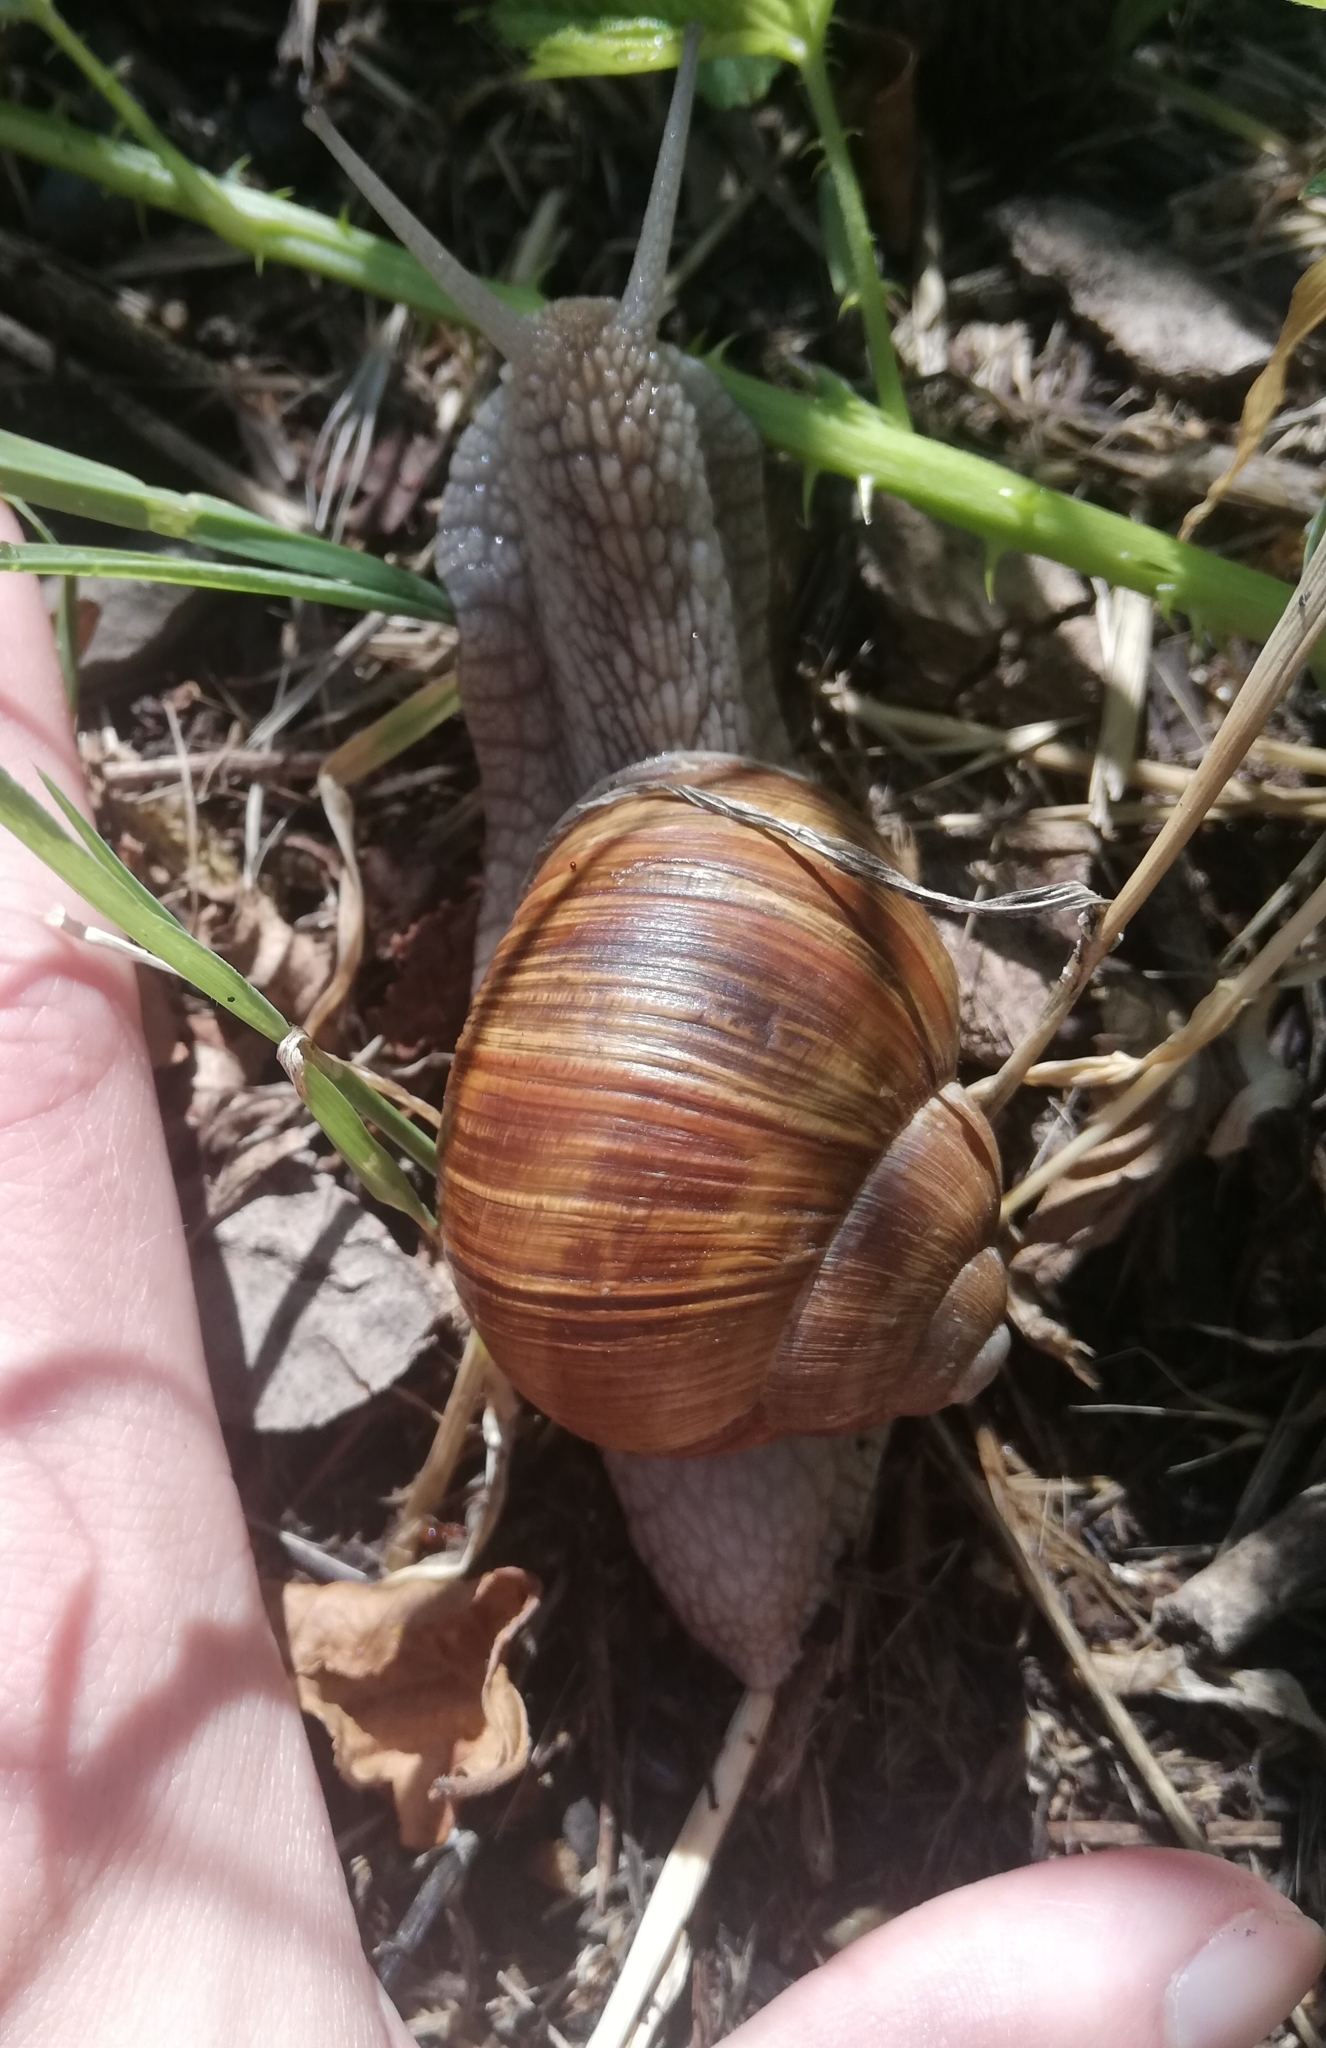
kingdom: Animalia
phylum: Mollusca
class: Gastropoda
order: Stylommatophora
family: Helicidae
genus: Helix
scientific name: Helix pomatia
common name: Roman snail
